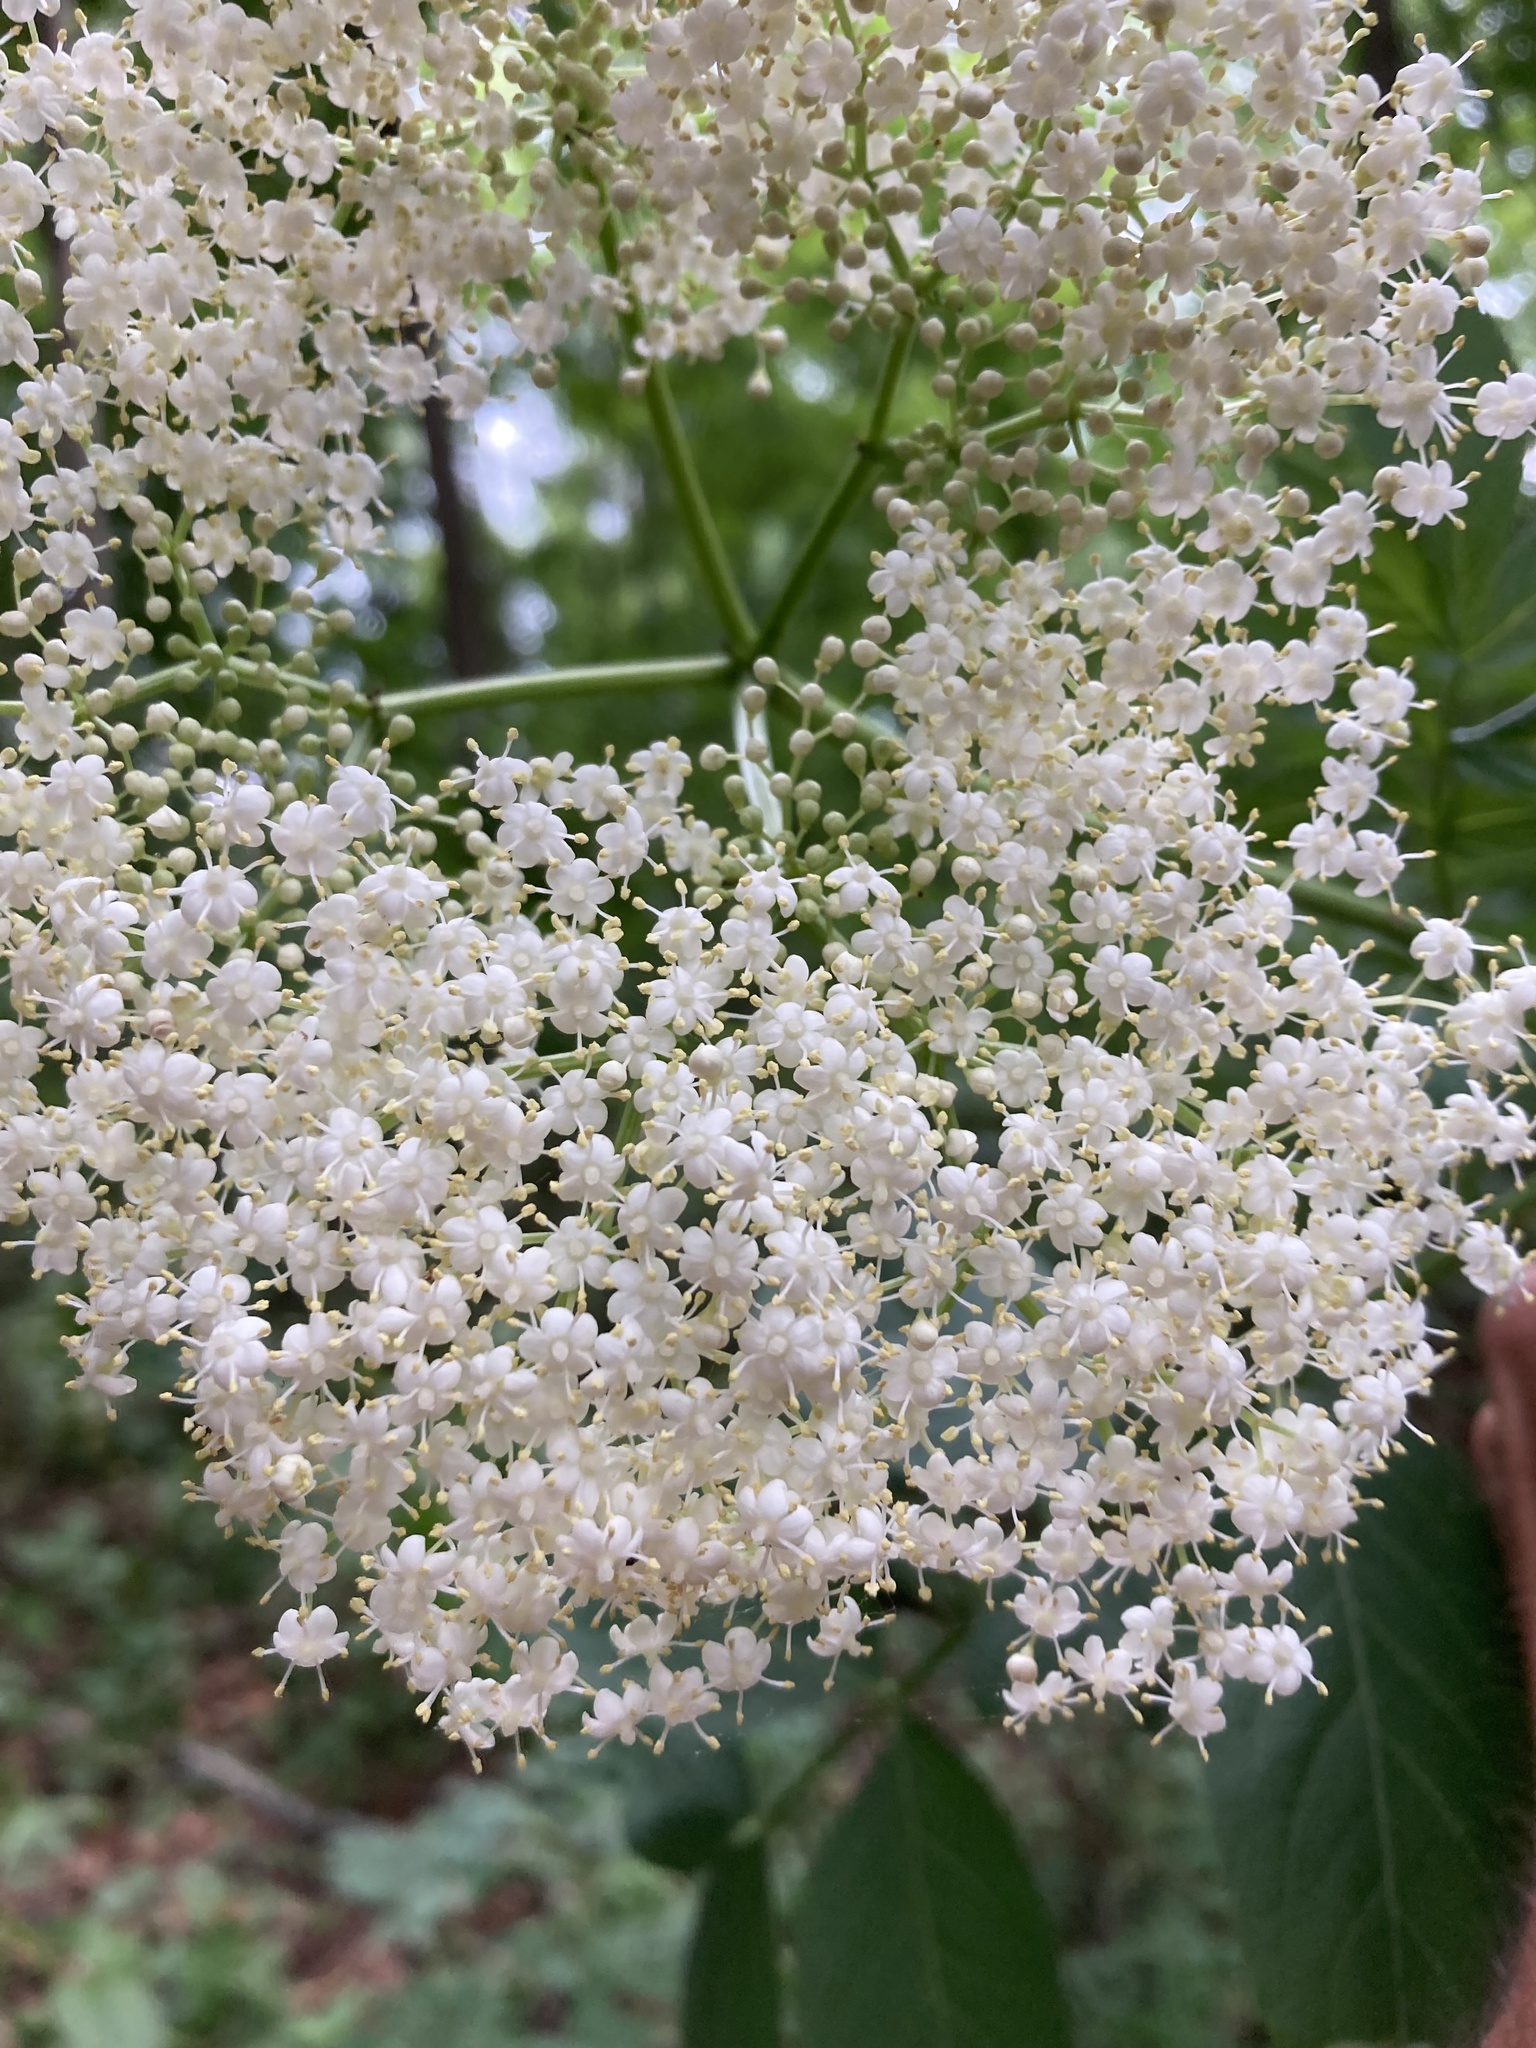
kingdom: Plantae
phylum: Tracheophyta
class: Magnoliopsida
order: Dipsacales
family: Viburnaceae
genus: Sambucus
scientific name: Sambucus canadensis
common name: American elder
